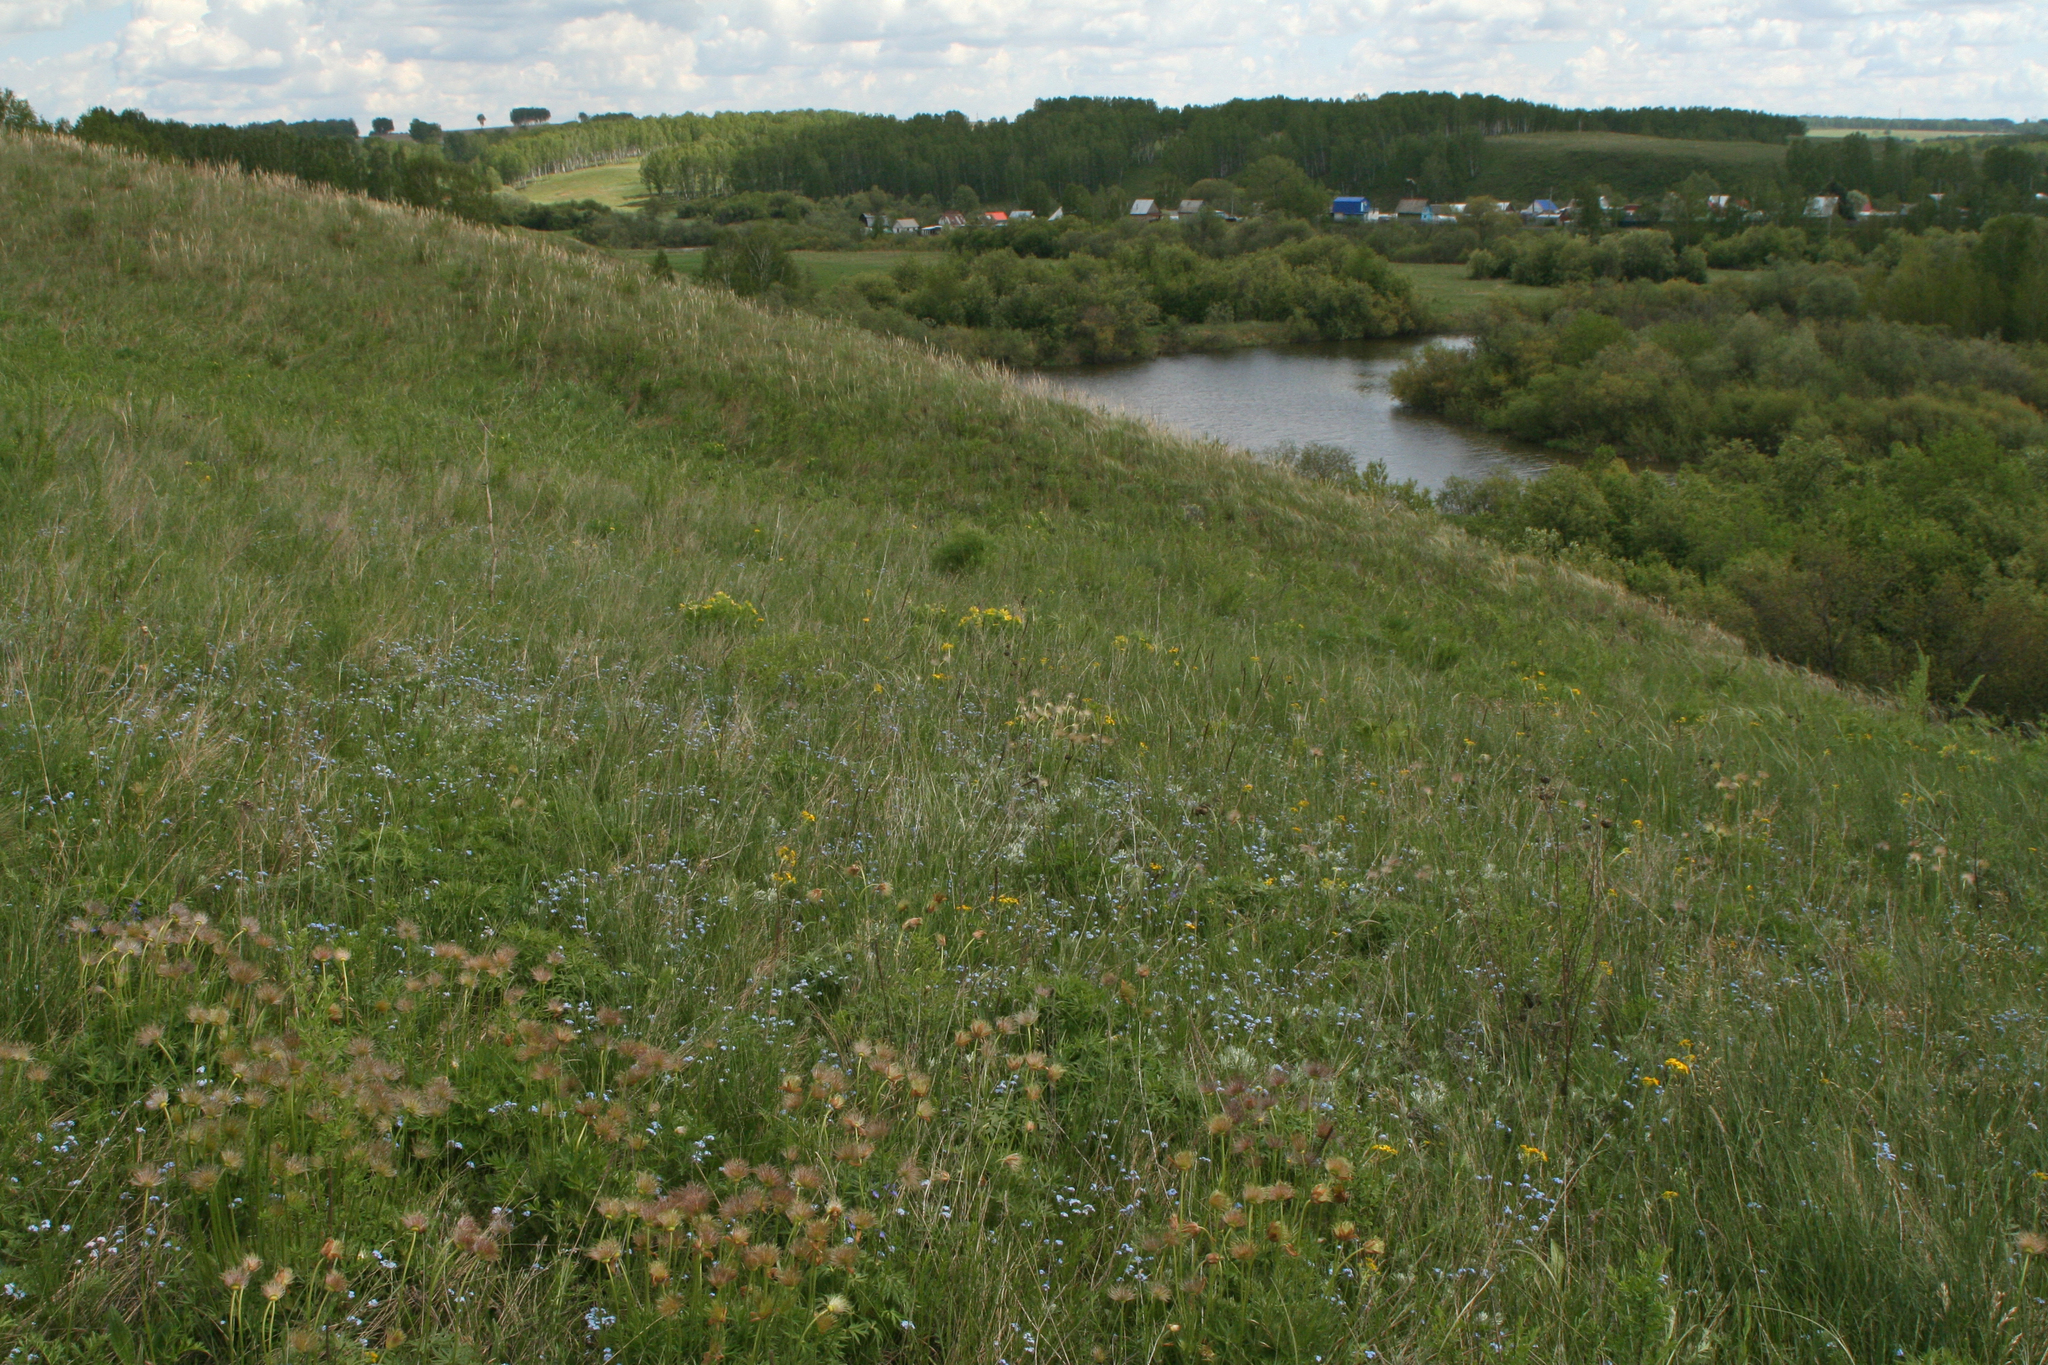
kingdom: Plantae
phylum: Tracheophyta
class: Magnoliopsida
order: Ranunculales
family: Ranunculaceae
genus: Pulsatilla
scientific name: Pulsatilla patens
